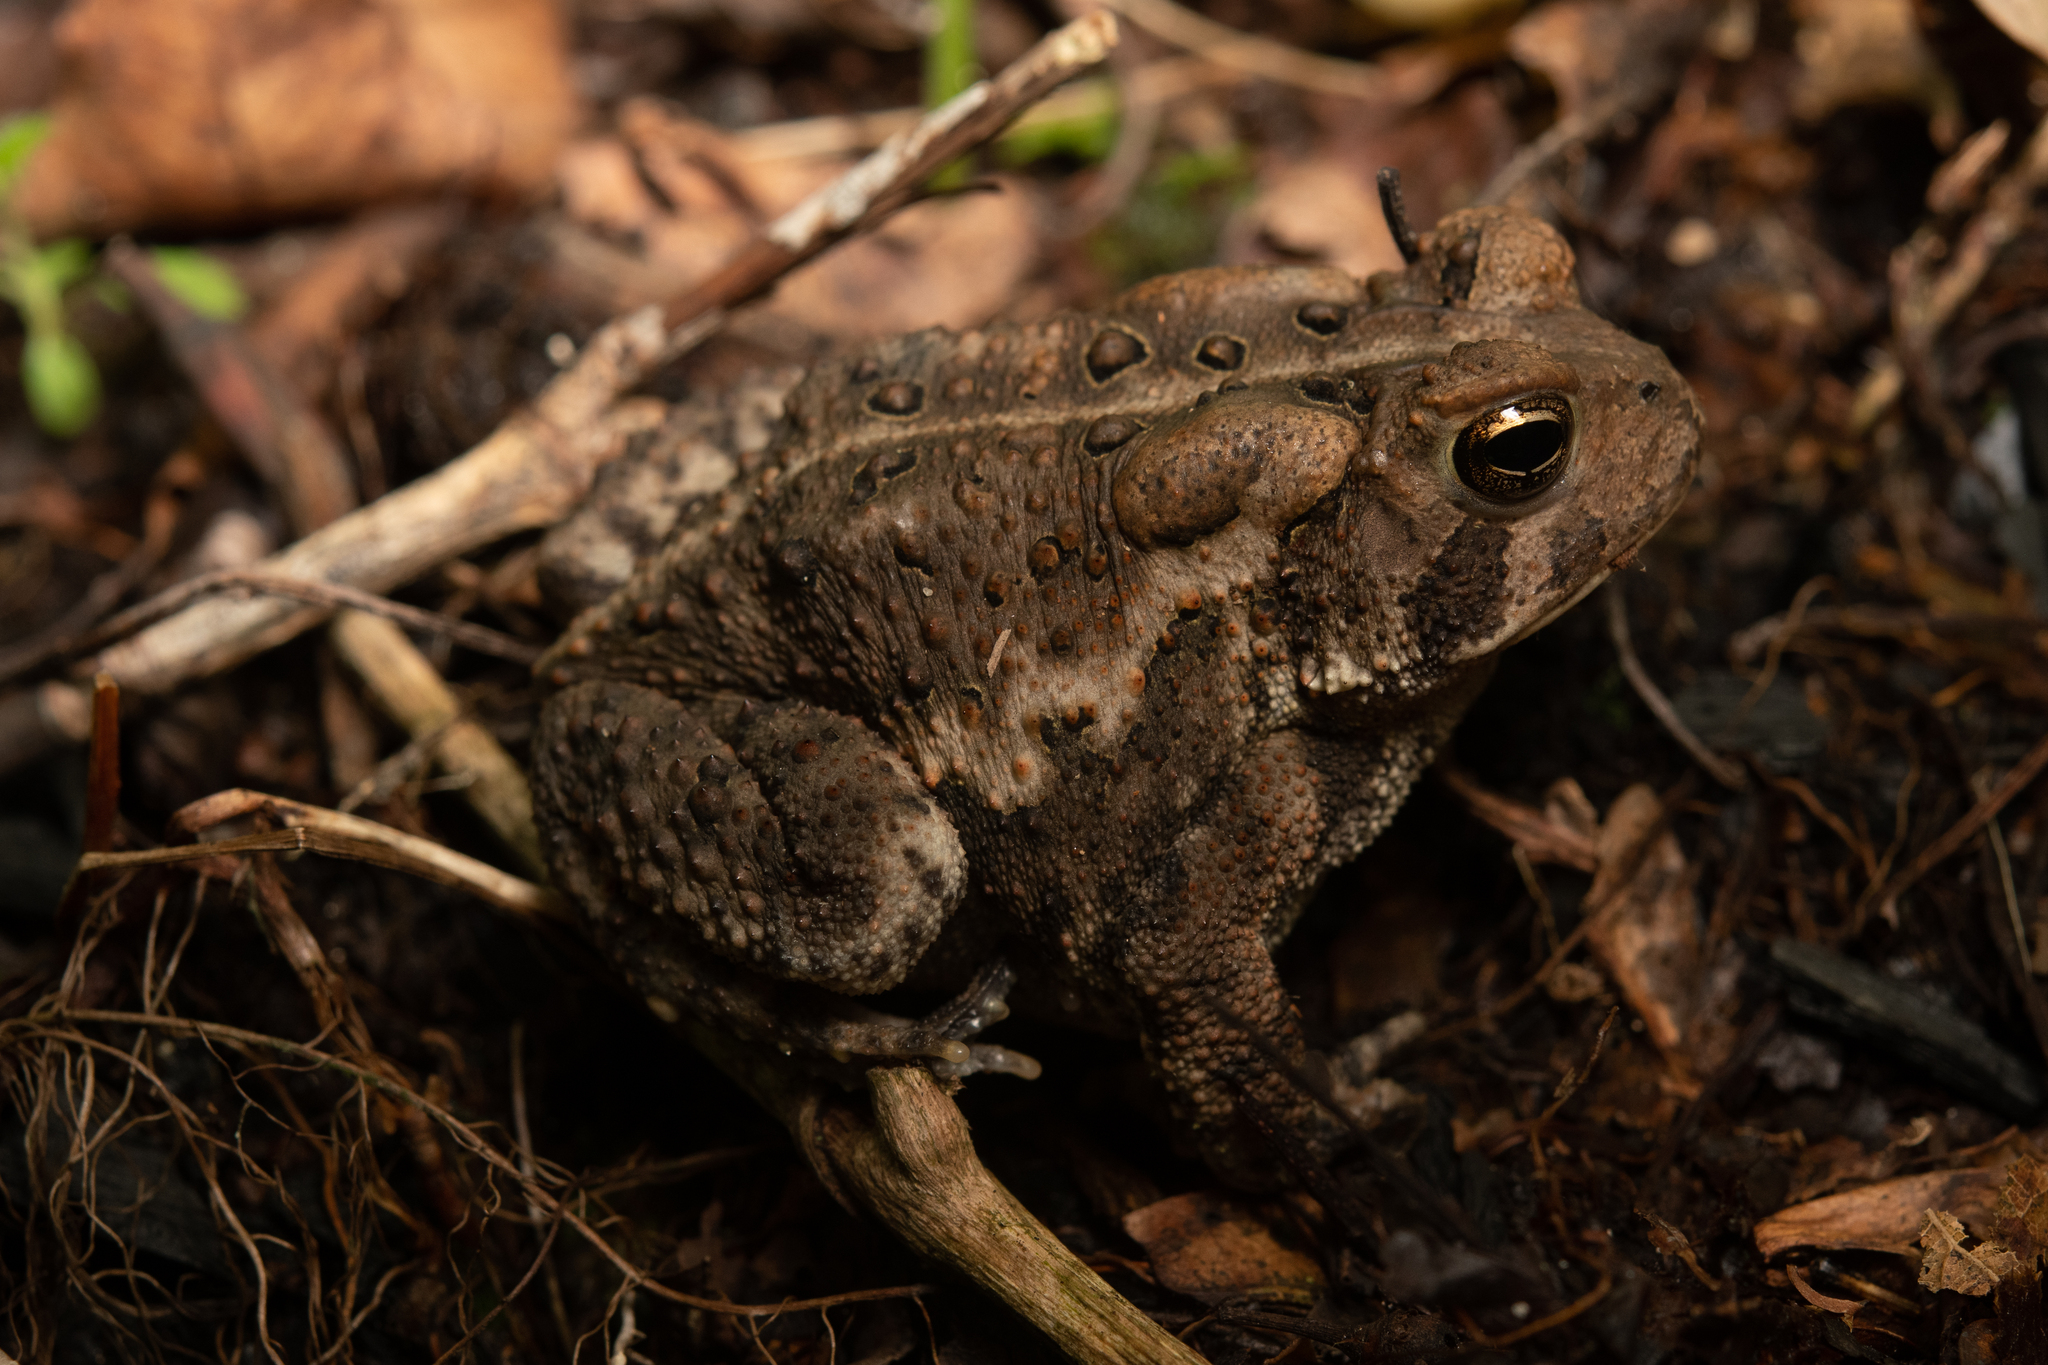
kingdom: Animalia
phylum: Chordata
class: Amphibia
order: Anura
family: Bufonidae
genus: Anaxyrus
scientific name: Anaxyrus americanus
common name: American toad
